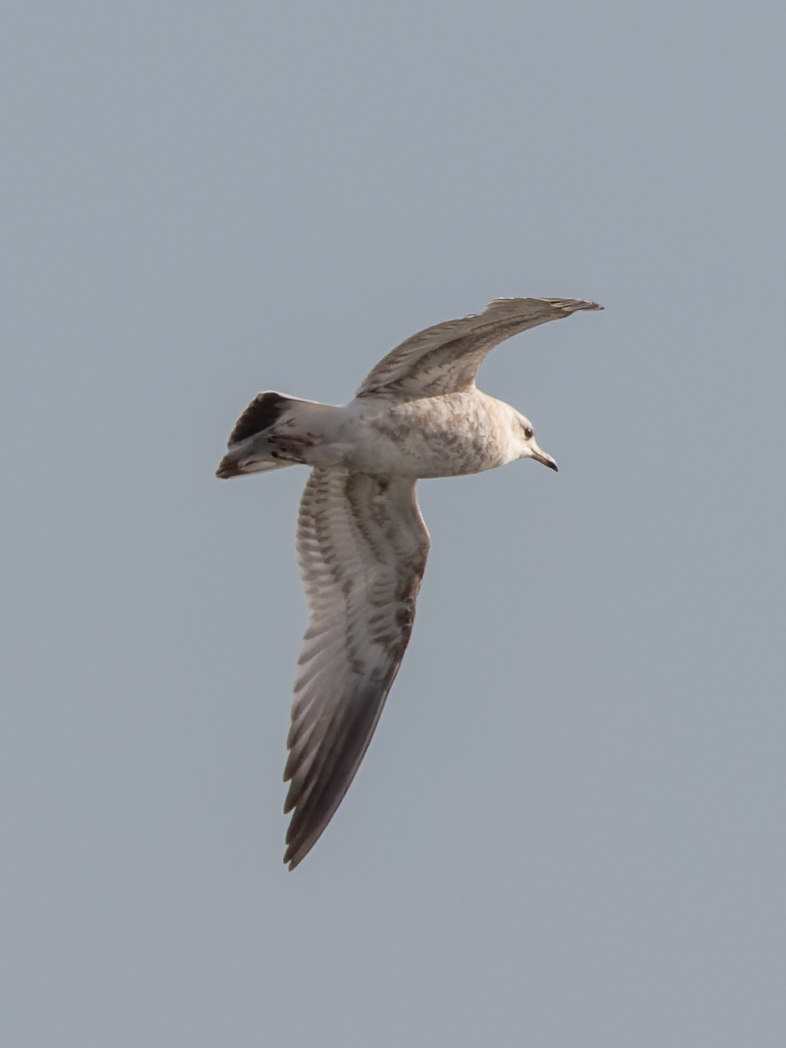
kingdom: Animalia
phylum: Chordata
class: Aves
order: Charadriiformes
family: Laridae
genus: Larus
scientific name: Larus canus
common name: Mew gull
